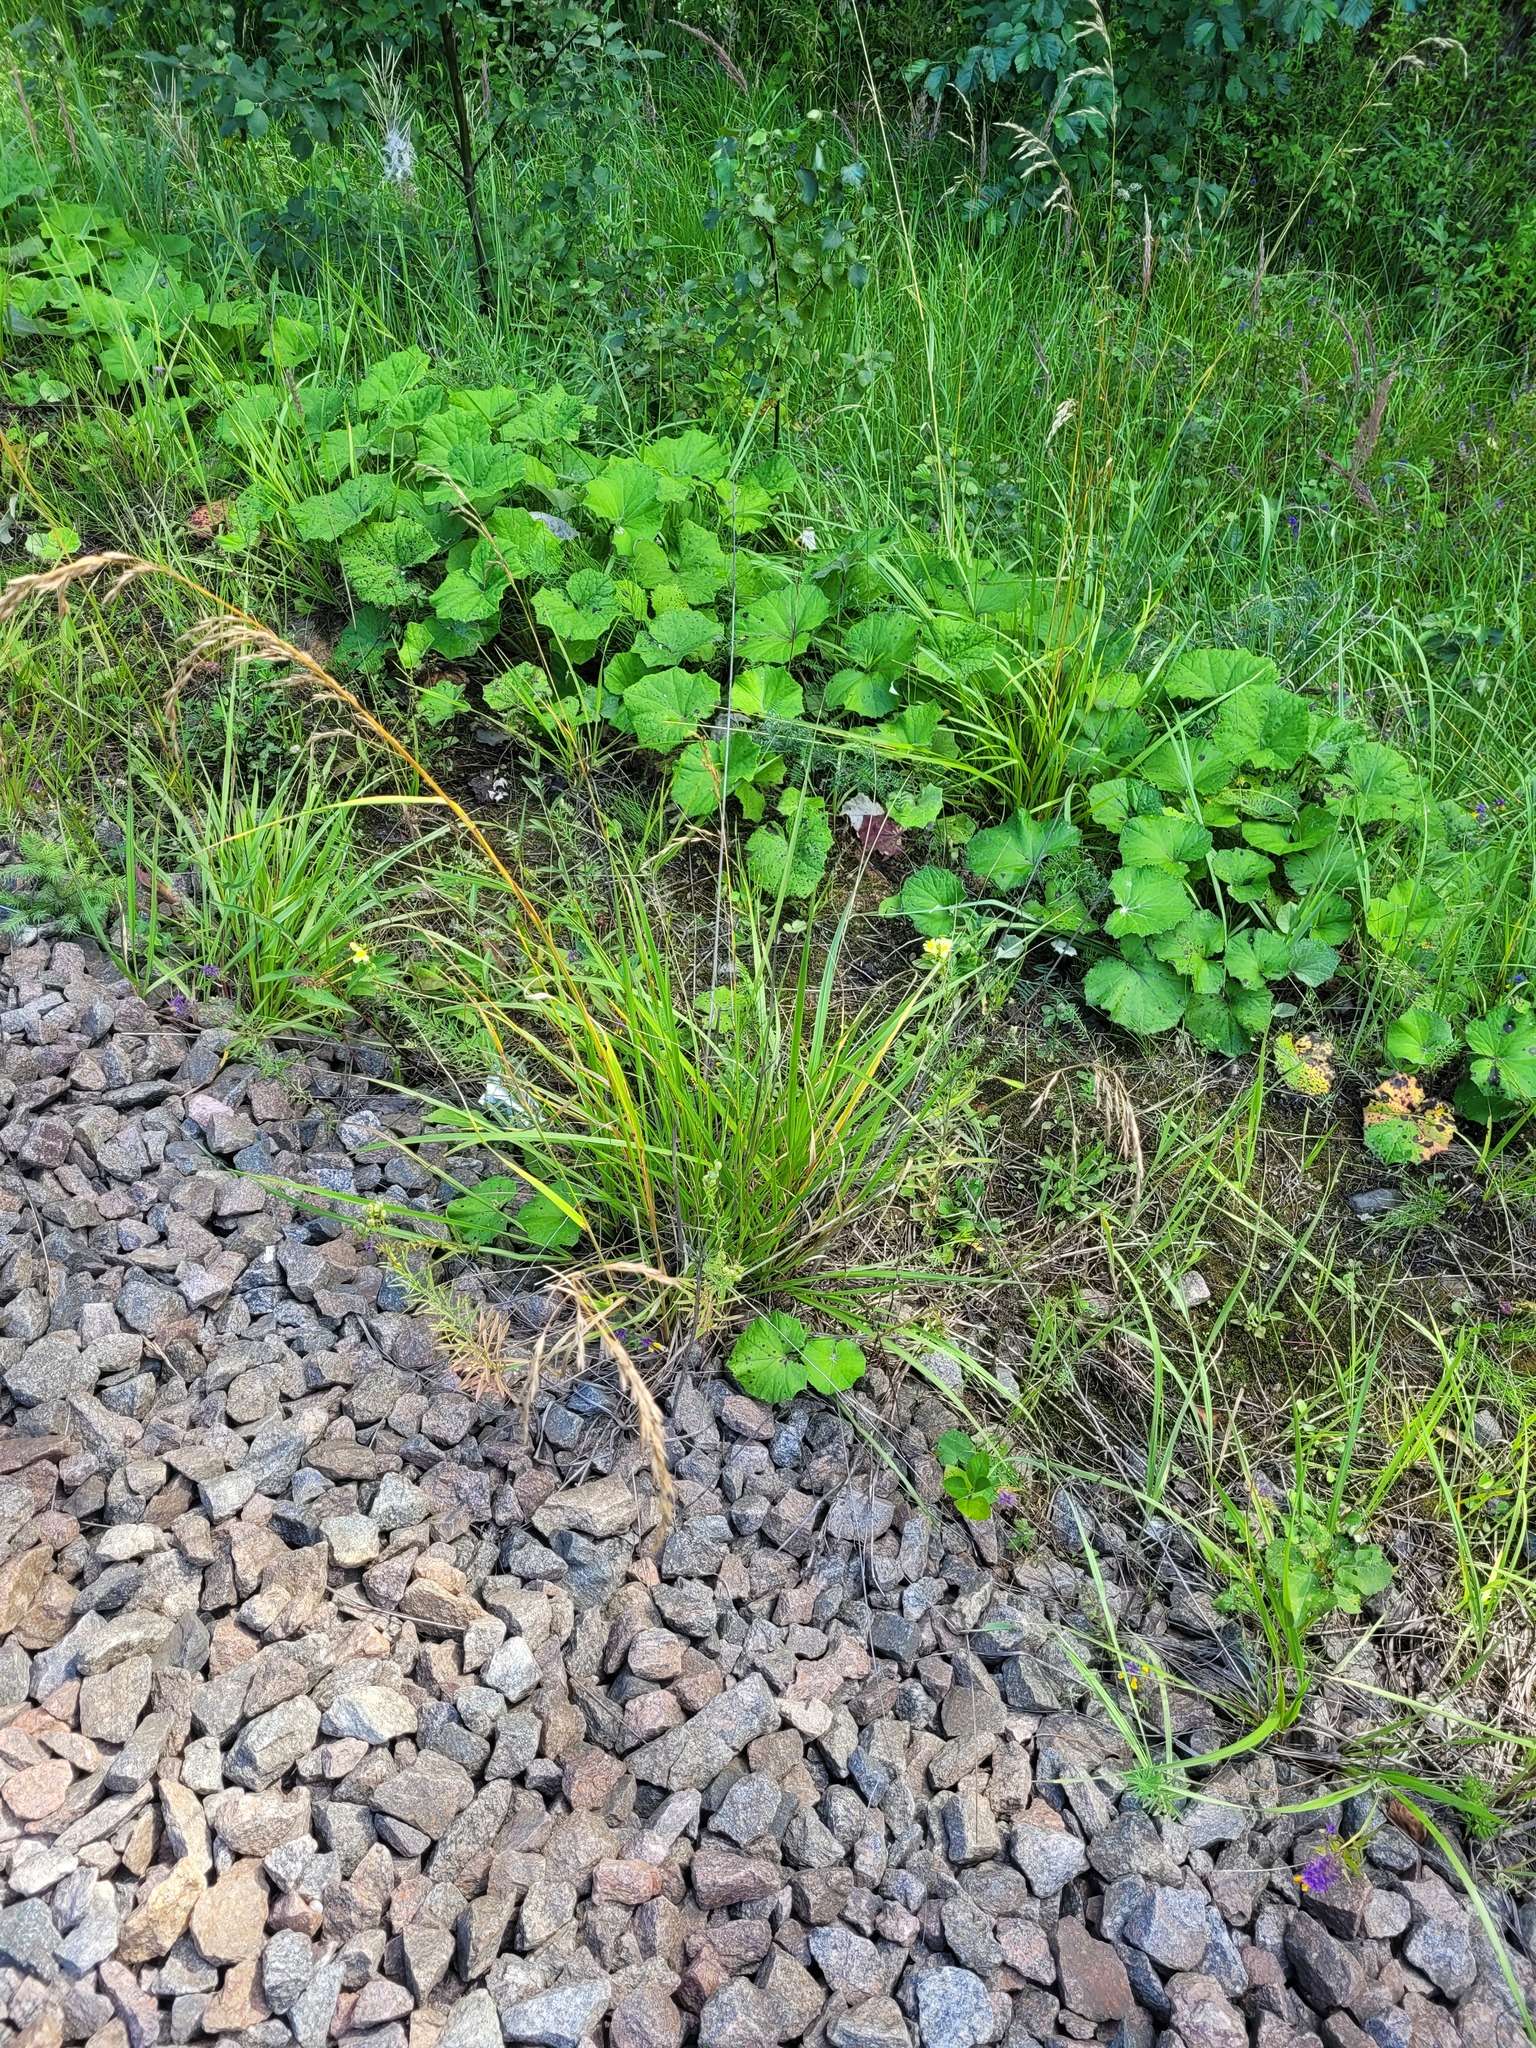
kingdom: Plantae
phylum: Tracheophyta
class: Liliopsida
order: Poales
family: Poaceae
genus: Lolium
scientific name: Lolium arundinaceum
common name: Reed fescue
